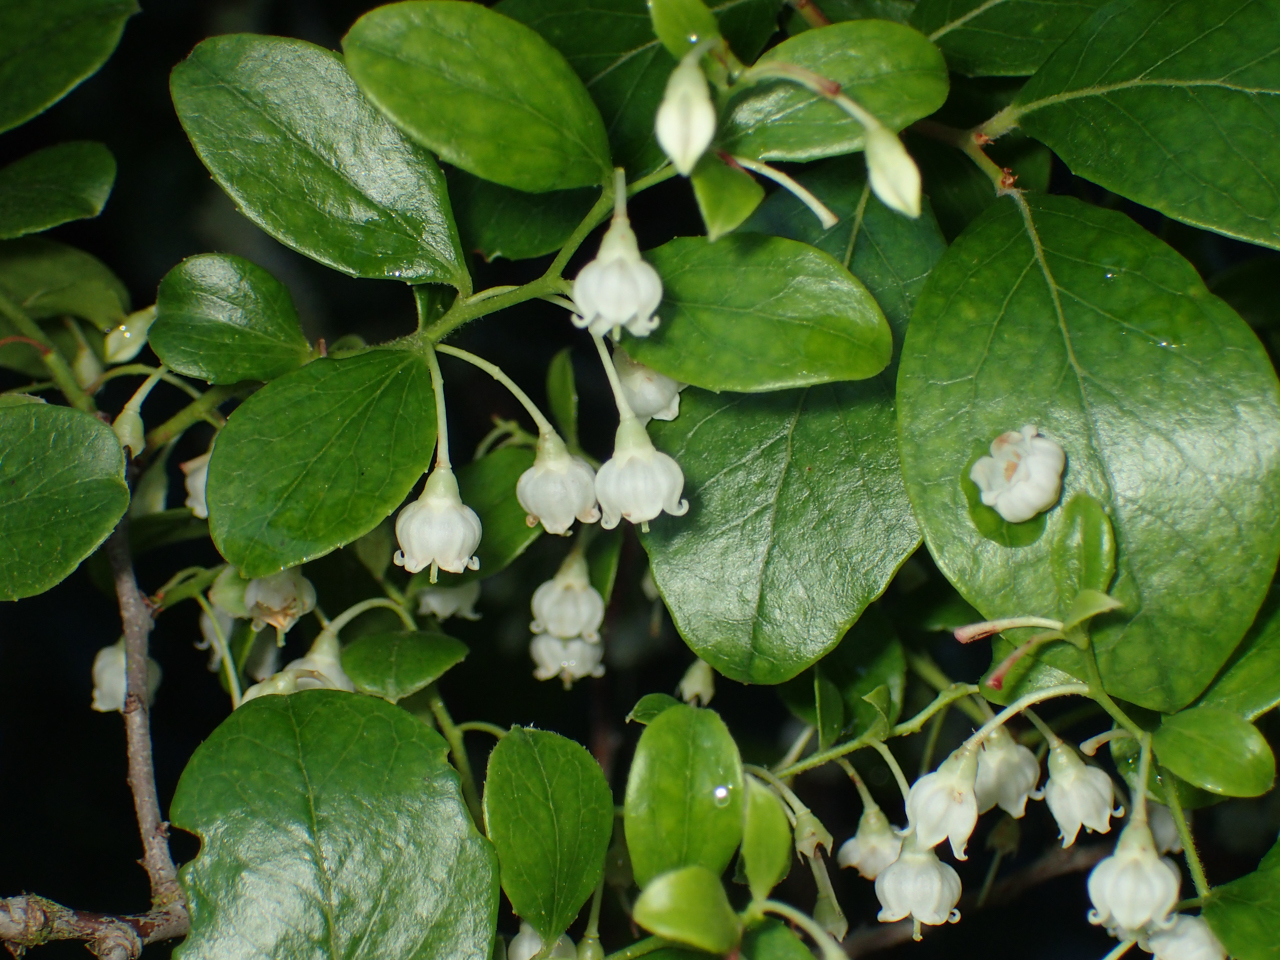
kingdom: Plantae
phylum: Tracheophyta
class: Magnoliopsida
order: Ericales
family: Ericaceae
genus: Vaccinium
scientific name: Vaccinium arboreum
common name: Farkleberry
